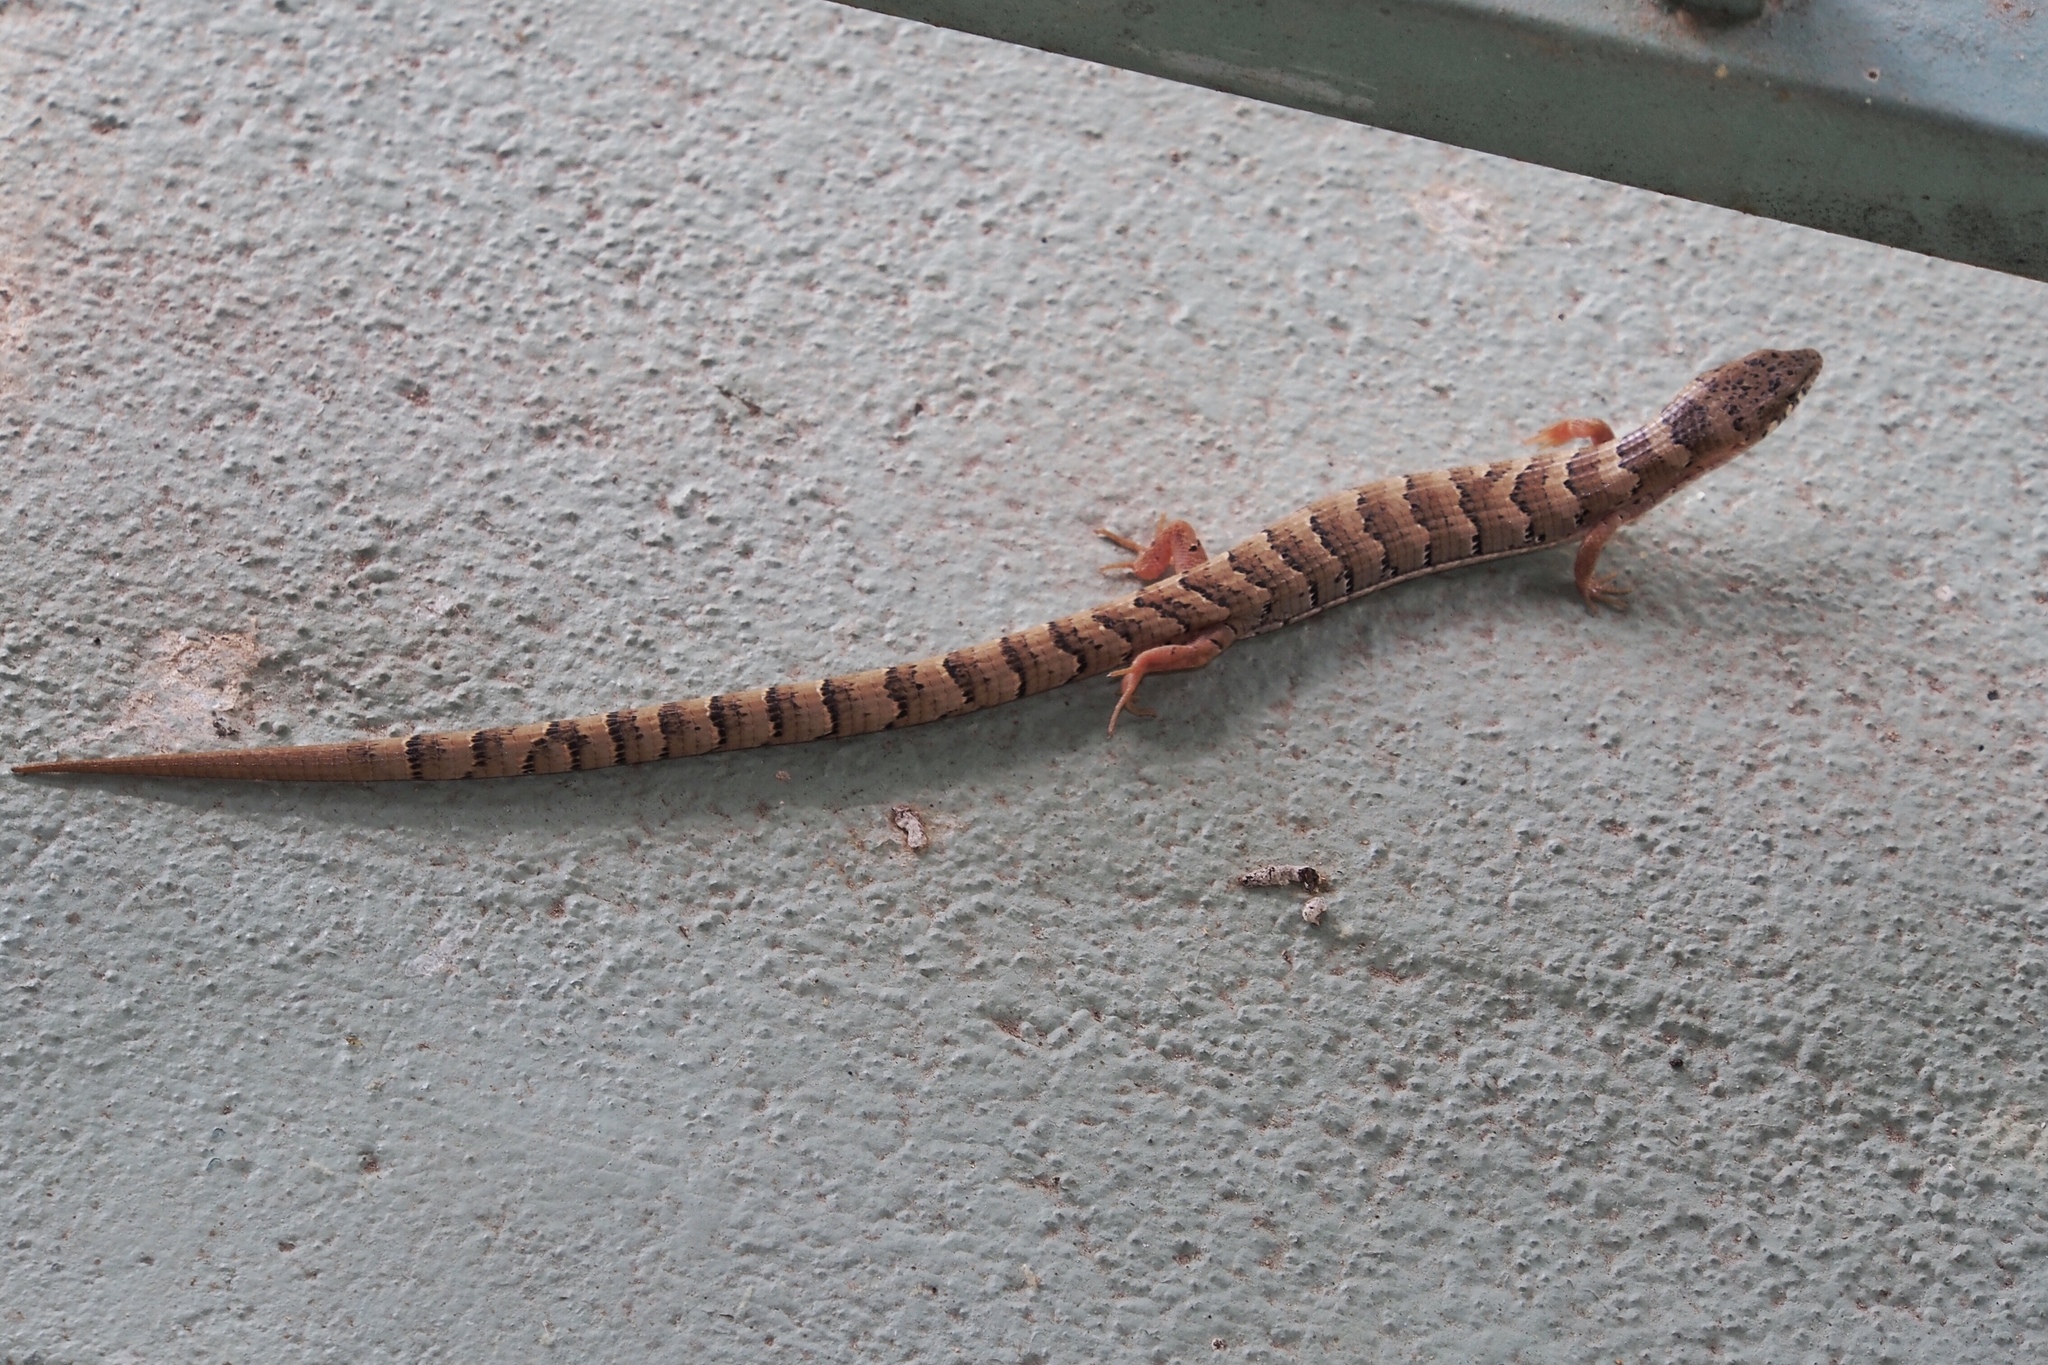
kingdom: Animalia
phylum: Chordata
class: Squamata
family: Anguidae
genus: Elgaria
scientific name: Elgaria kingii
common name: Madrean alligator lizard
